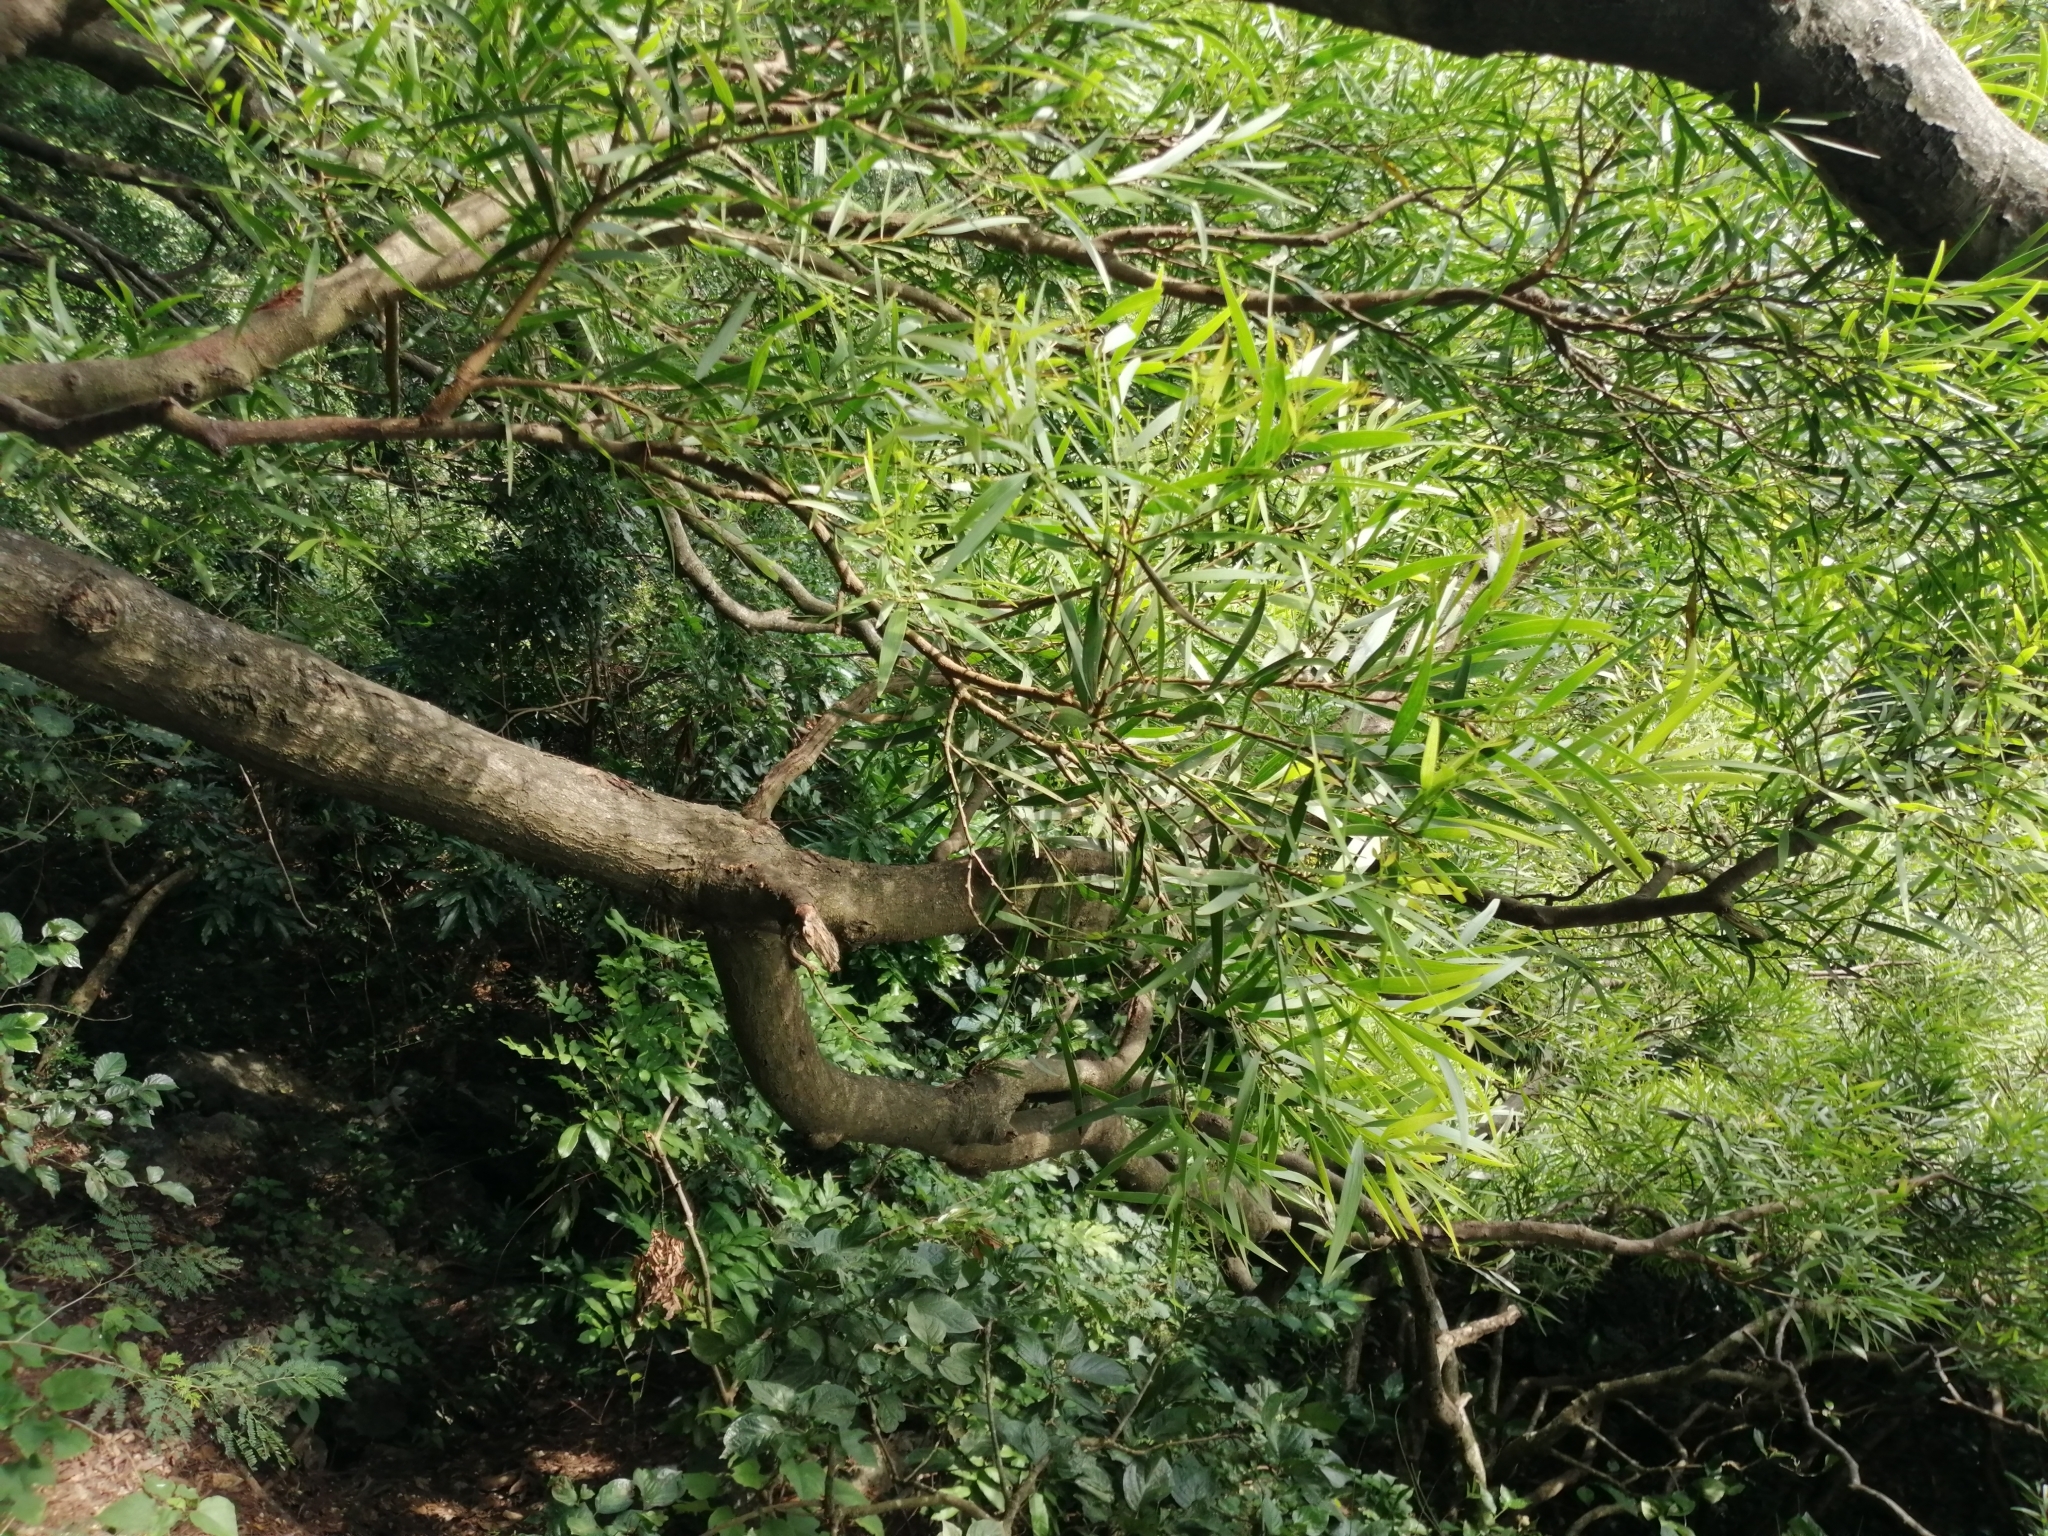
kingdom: Plantae
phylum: Tracheophyta
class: Magnoliopsida
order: Fabales
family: Fabaceae
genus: Acacia
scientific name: Acacia confusa
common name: Formosan koa
